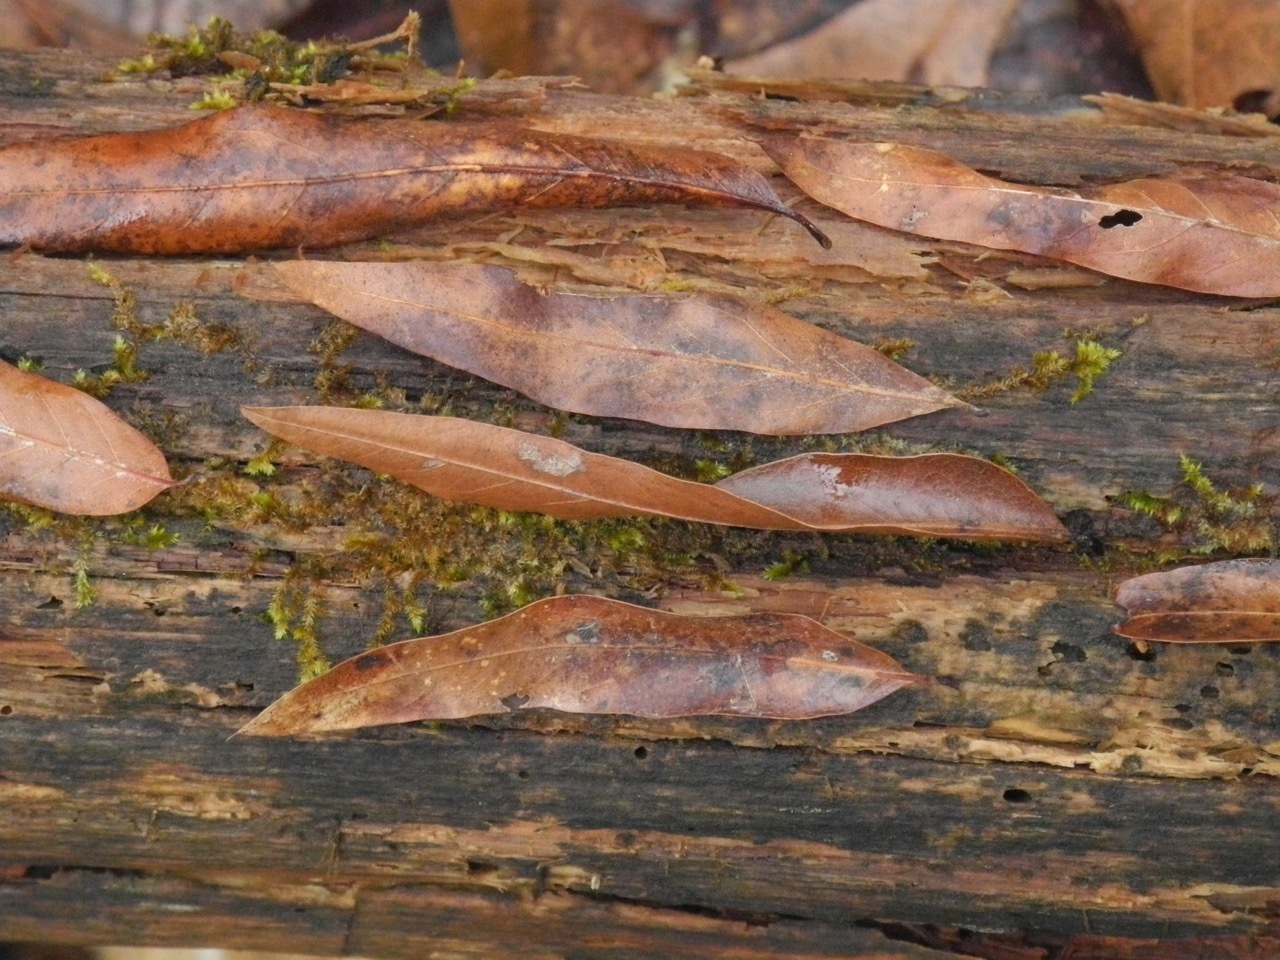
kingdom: Plantae
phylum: Tracheophyta
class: Magnoliopsida
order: Fagales
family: Fagaceae
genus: Quercus
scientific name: Quercus phellos
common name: Willow oak
